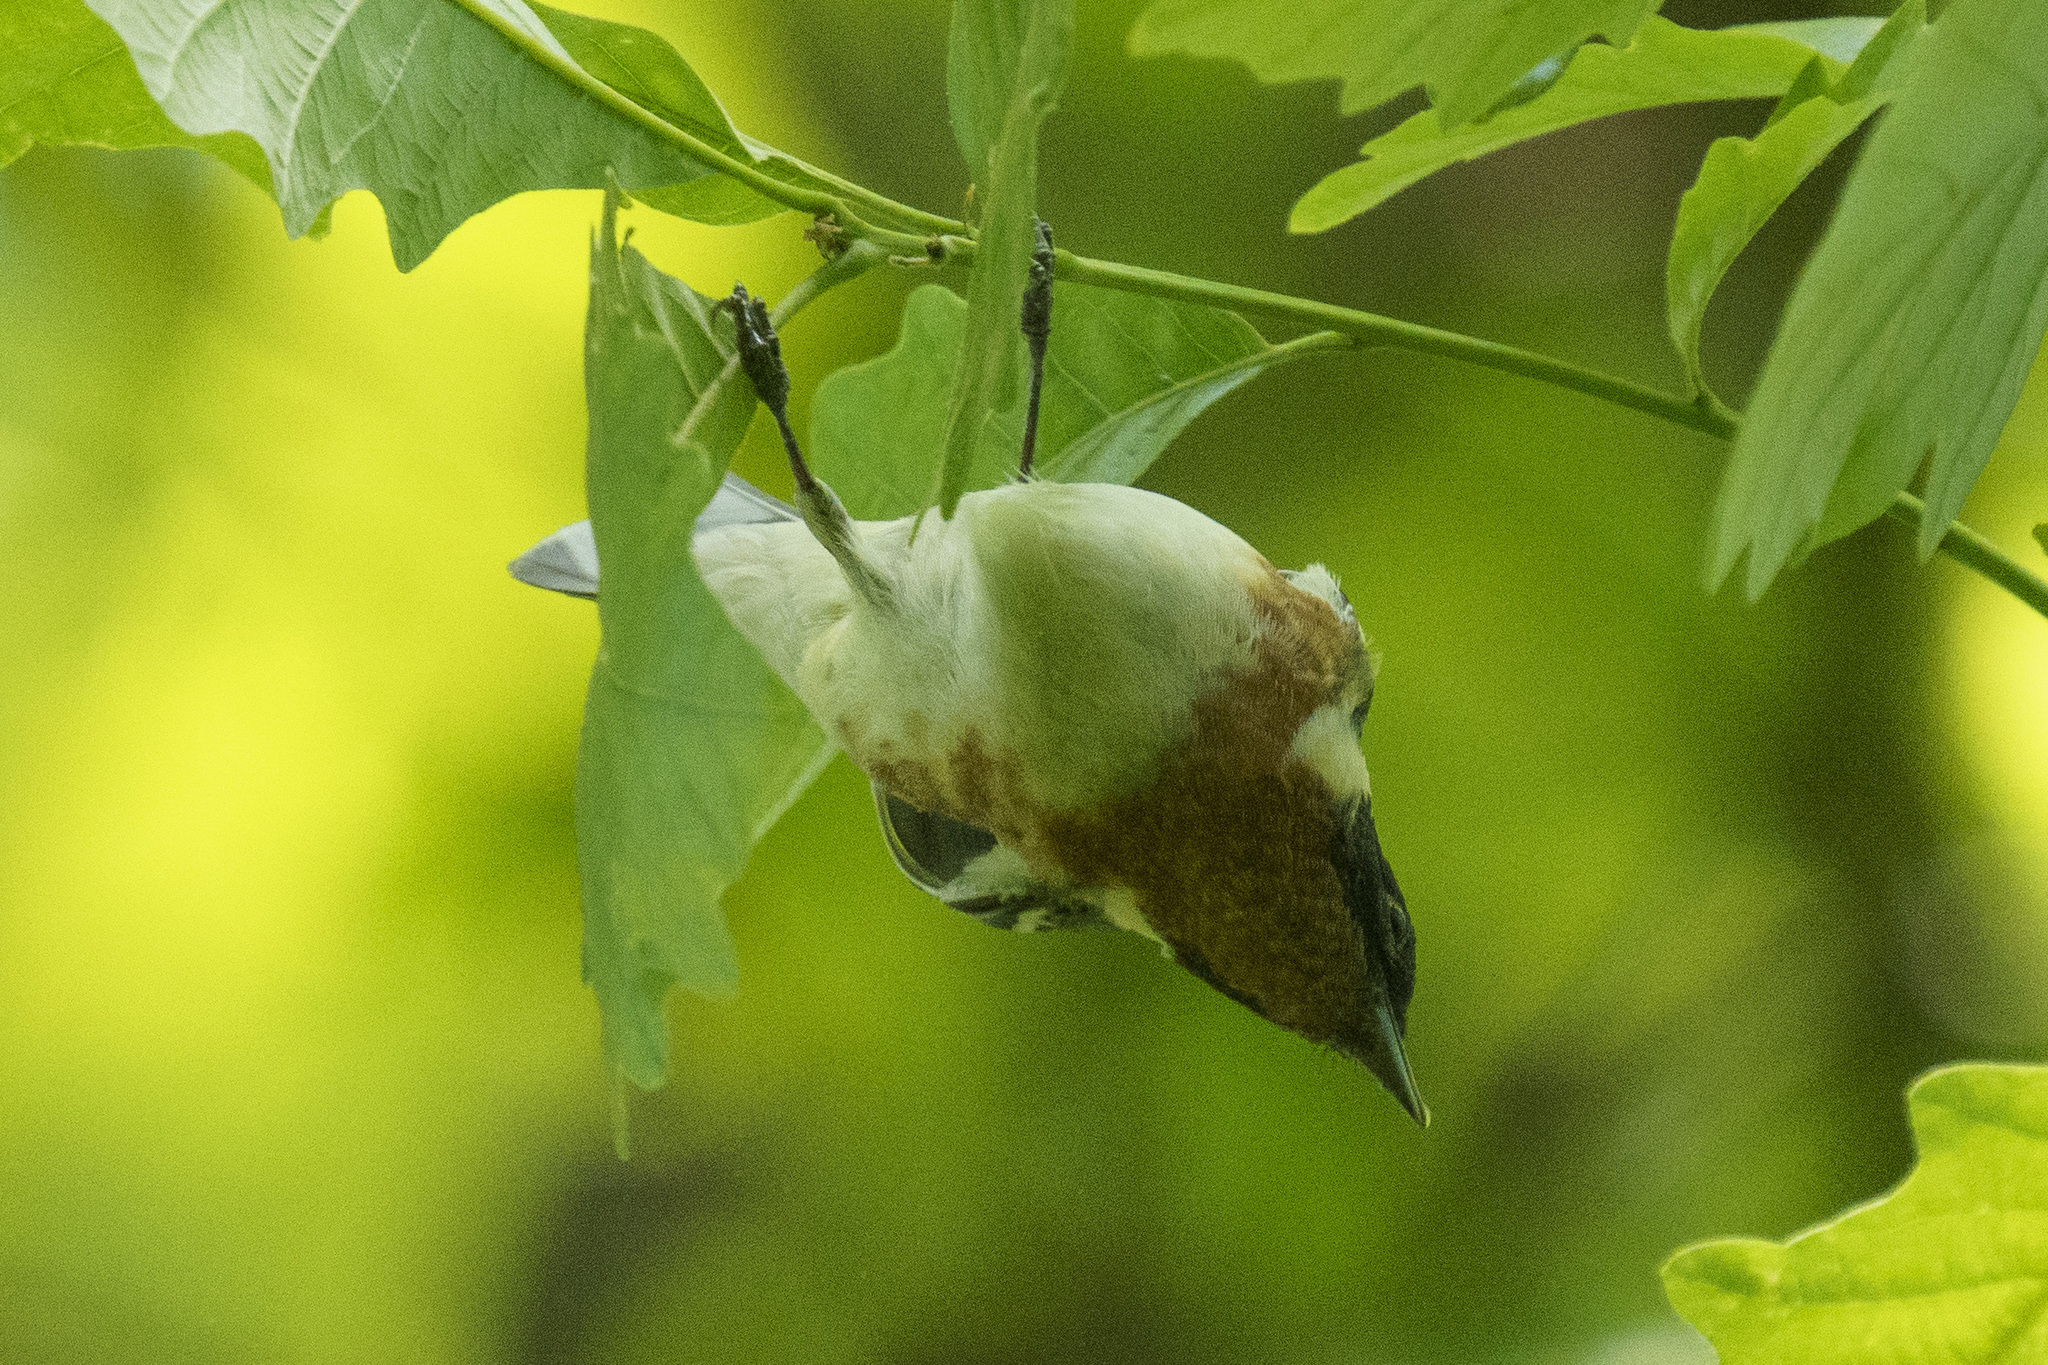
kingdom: Animalia
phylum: Chordata
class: Aves
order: Passeriformes
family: Parulidae
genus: Setophaga
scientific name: Setophaga castanea
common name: Bay-breasted warbler
